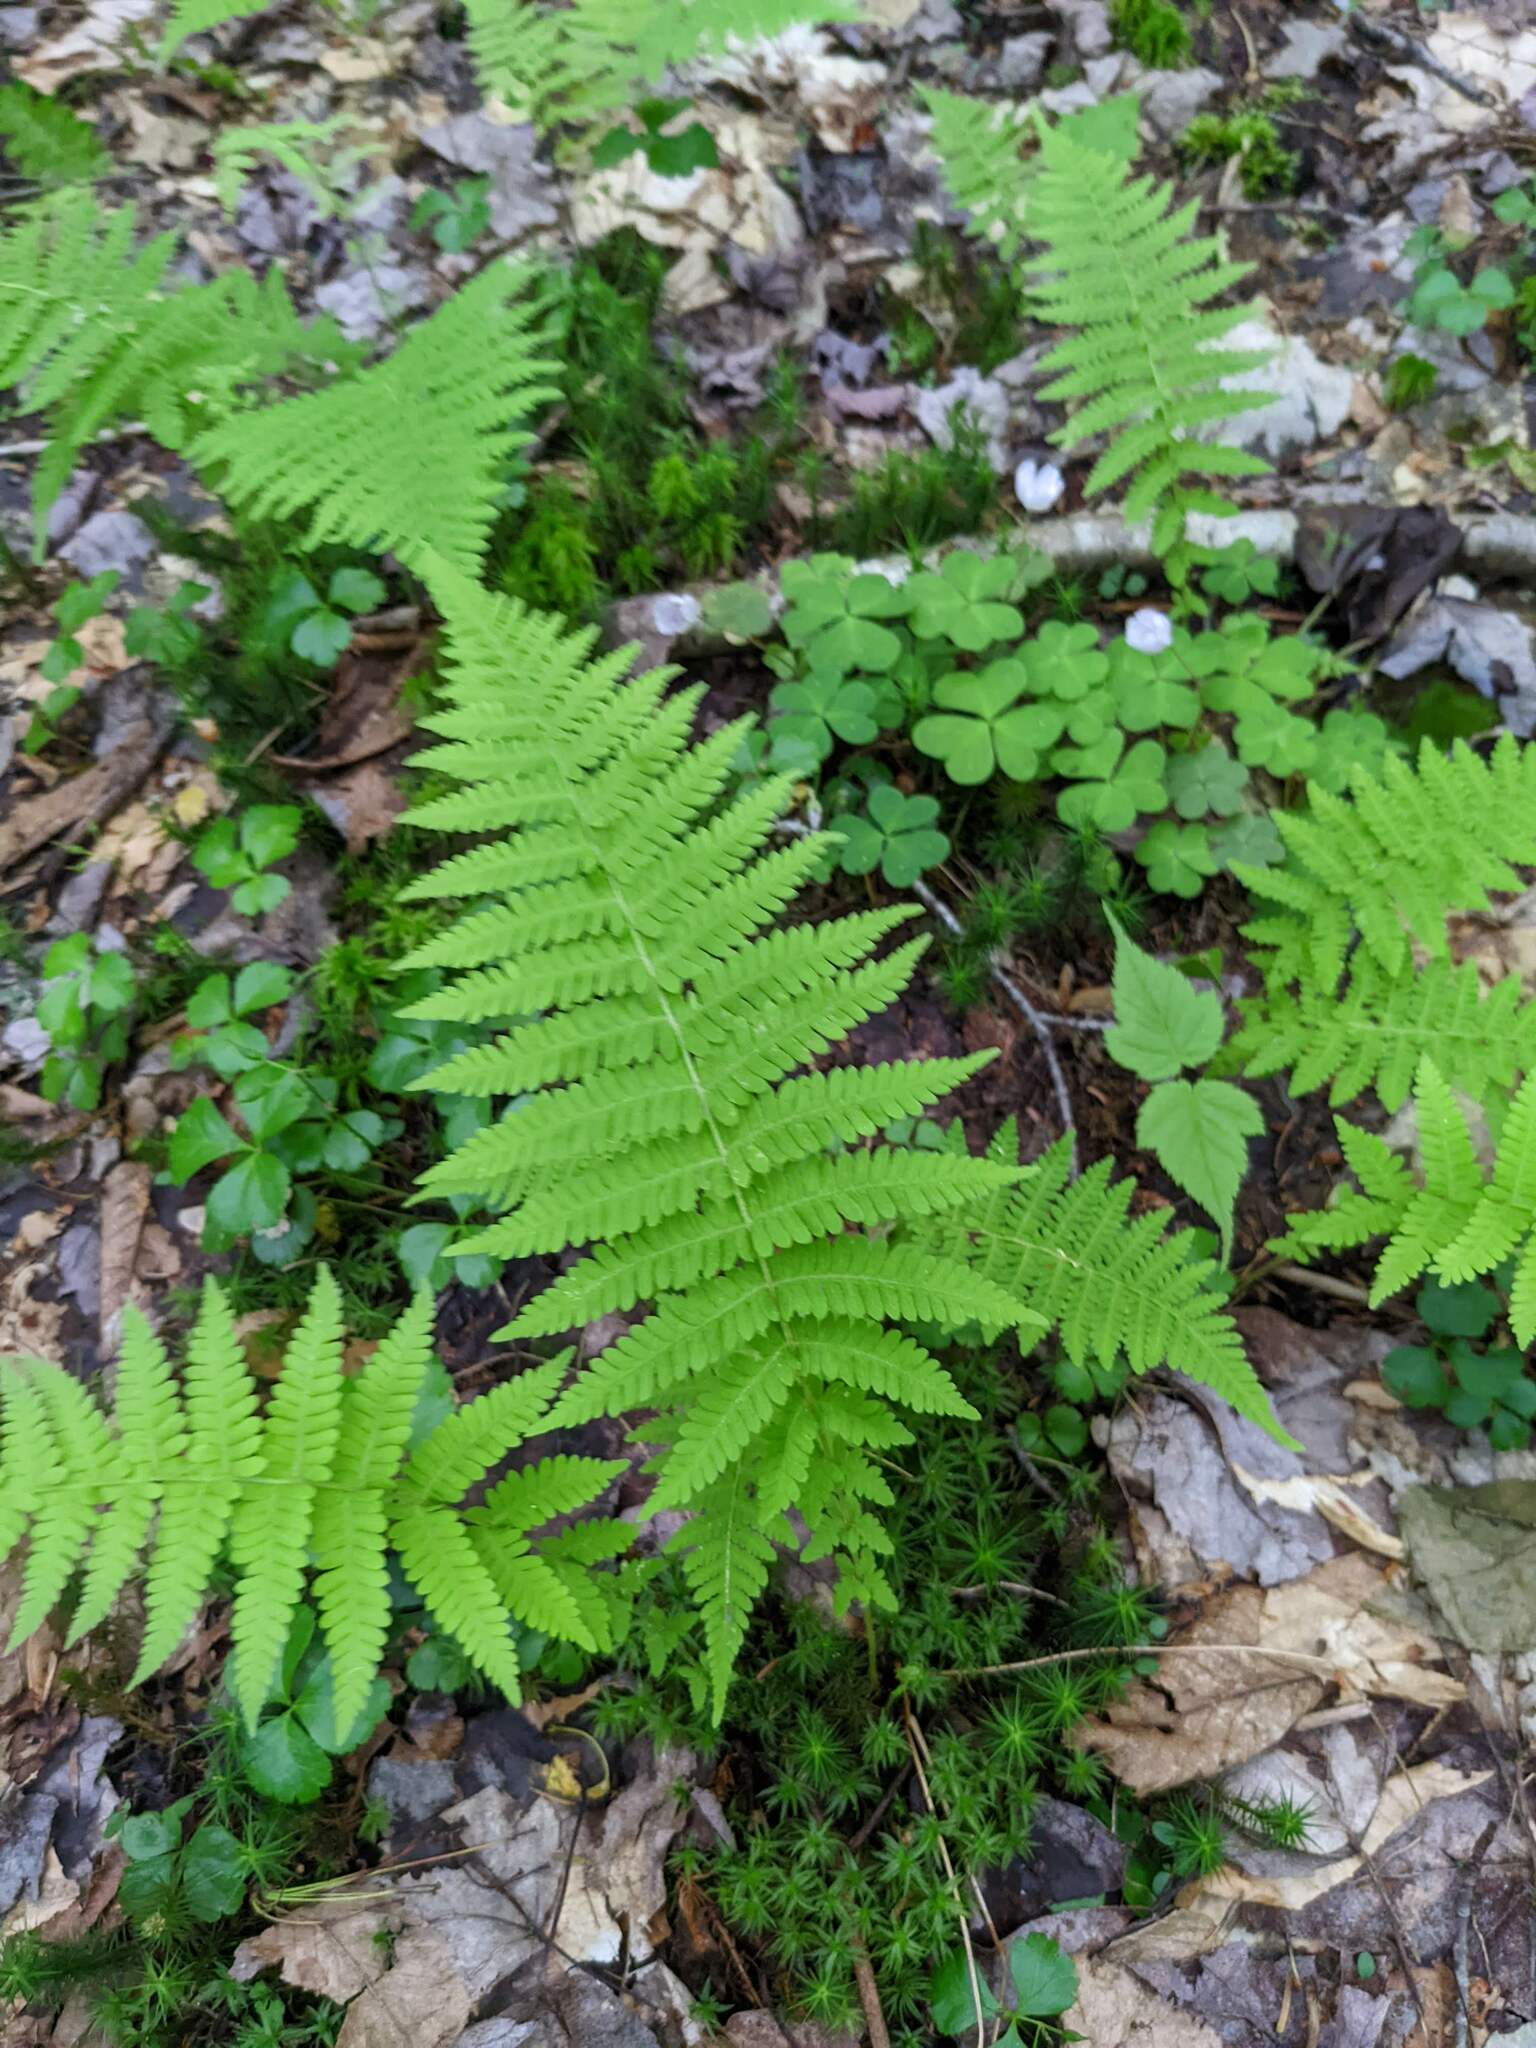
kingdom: Plantae
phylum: Tracheophyta
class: Polypodiopsida
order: Polypodiales
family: Thelypteridaceae
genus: Amauropelta
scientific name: Amauropelta noveboracensis
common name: New york fern
